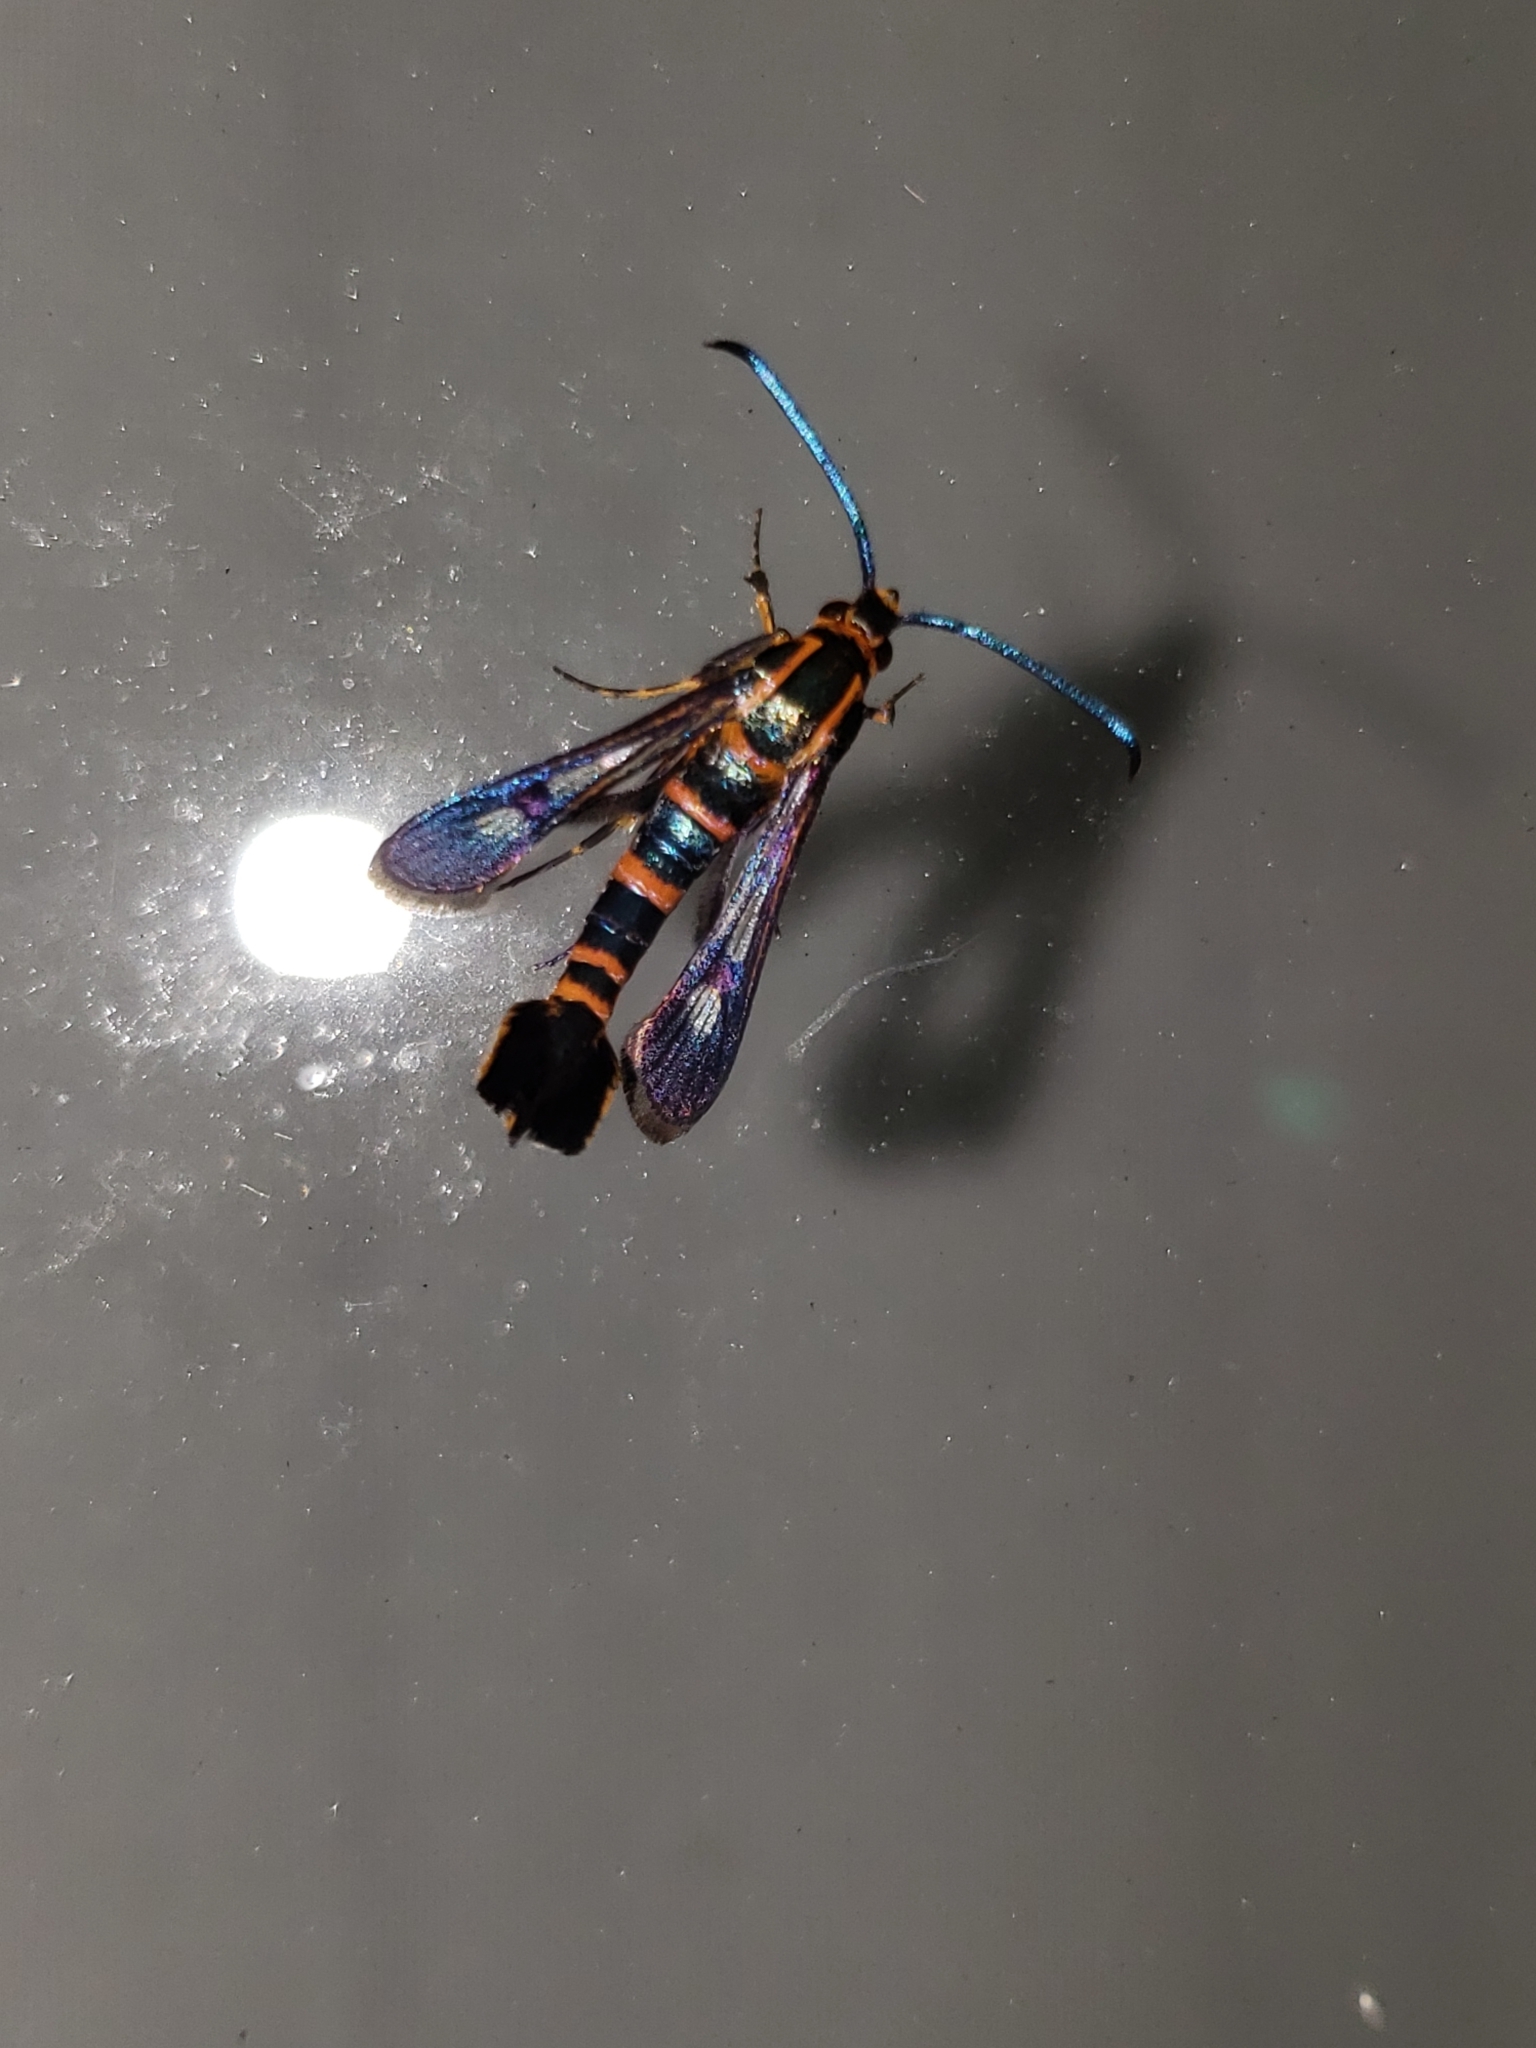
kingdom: Animalia
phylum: Arthropoda
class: Insecta
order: Lepidoptera
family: Sesiidae
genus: Carmenta
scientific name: Carmenta texana
